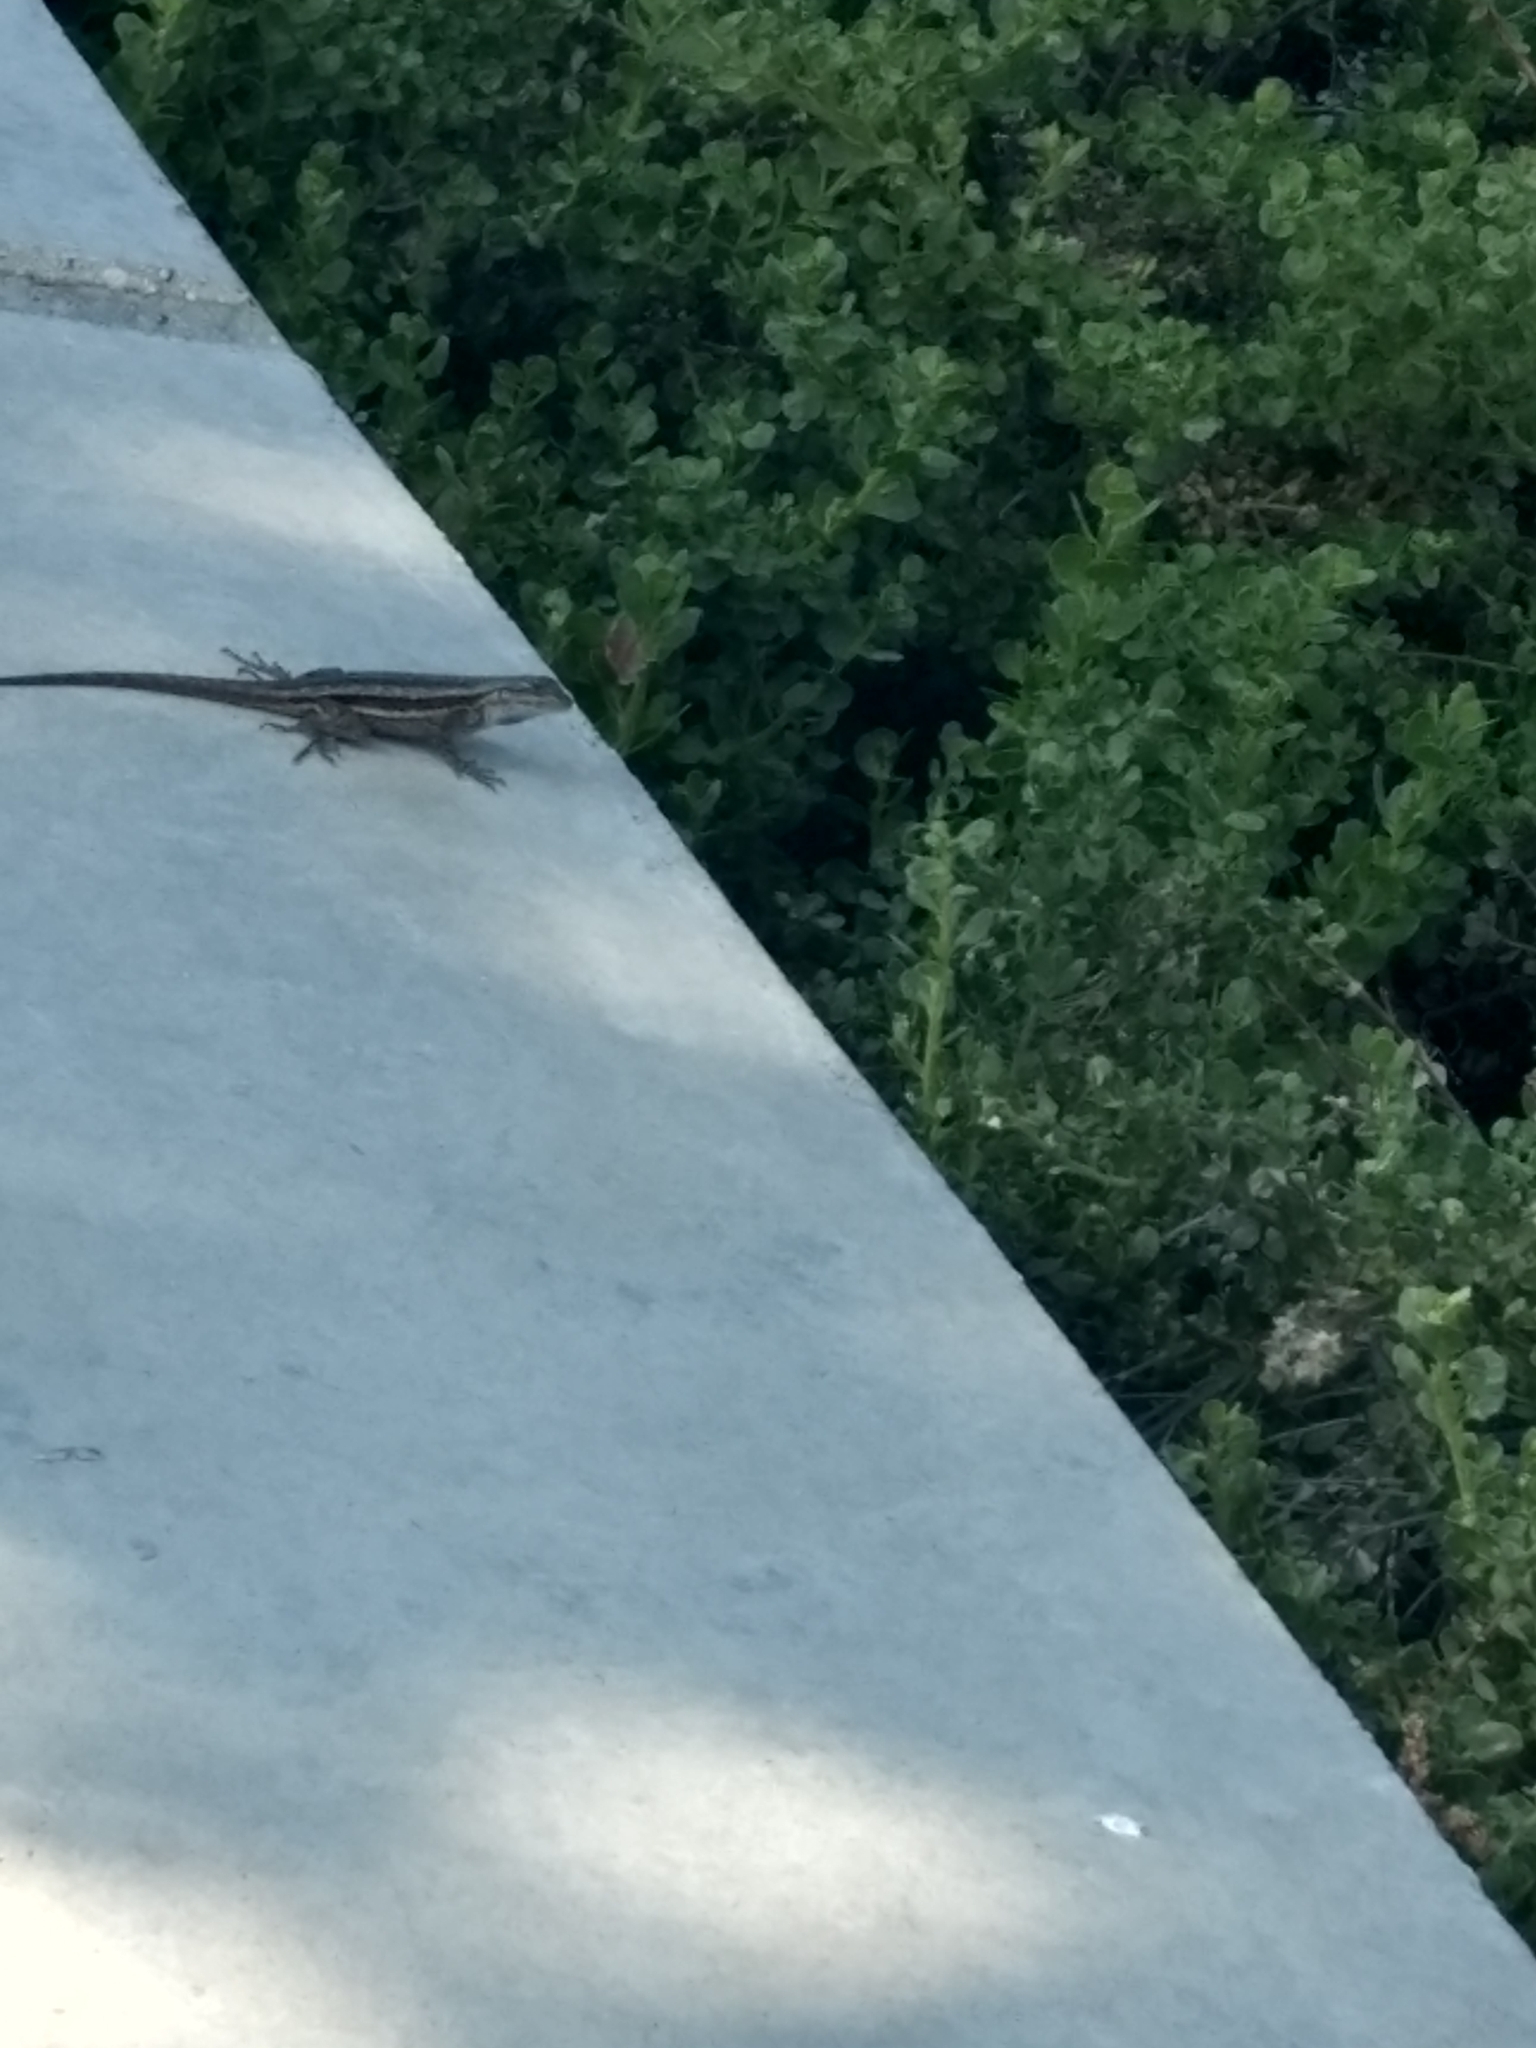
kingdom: Animalia
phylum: Chordata
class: Squamata
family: Phrynosomatidae
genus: Sceloporus
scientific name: Sceloporus occidentalis
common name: Western fence lizard
